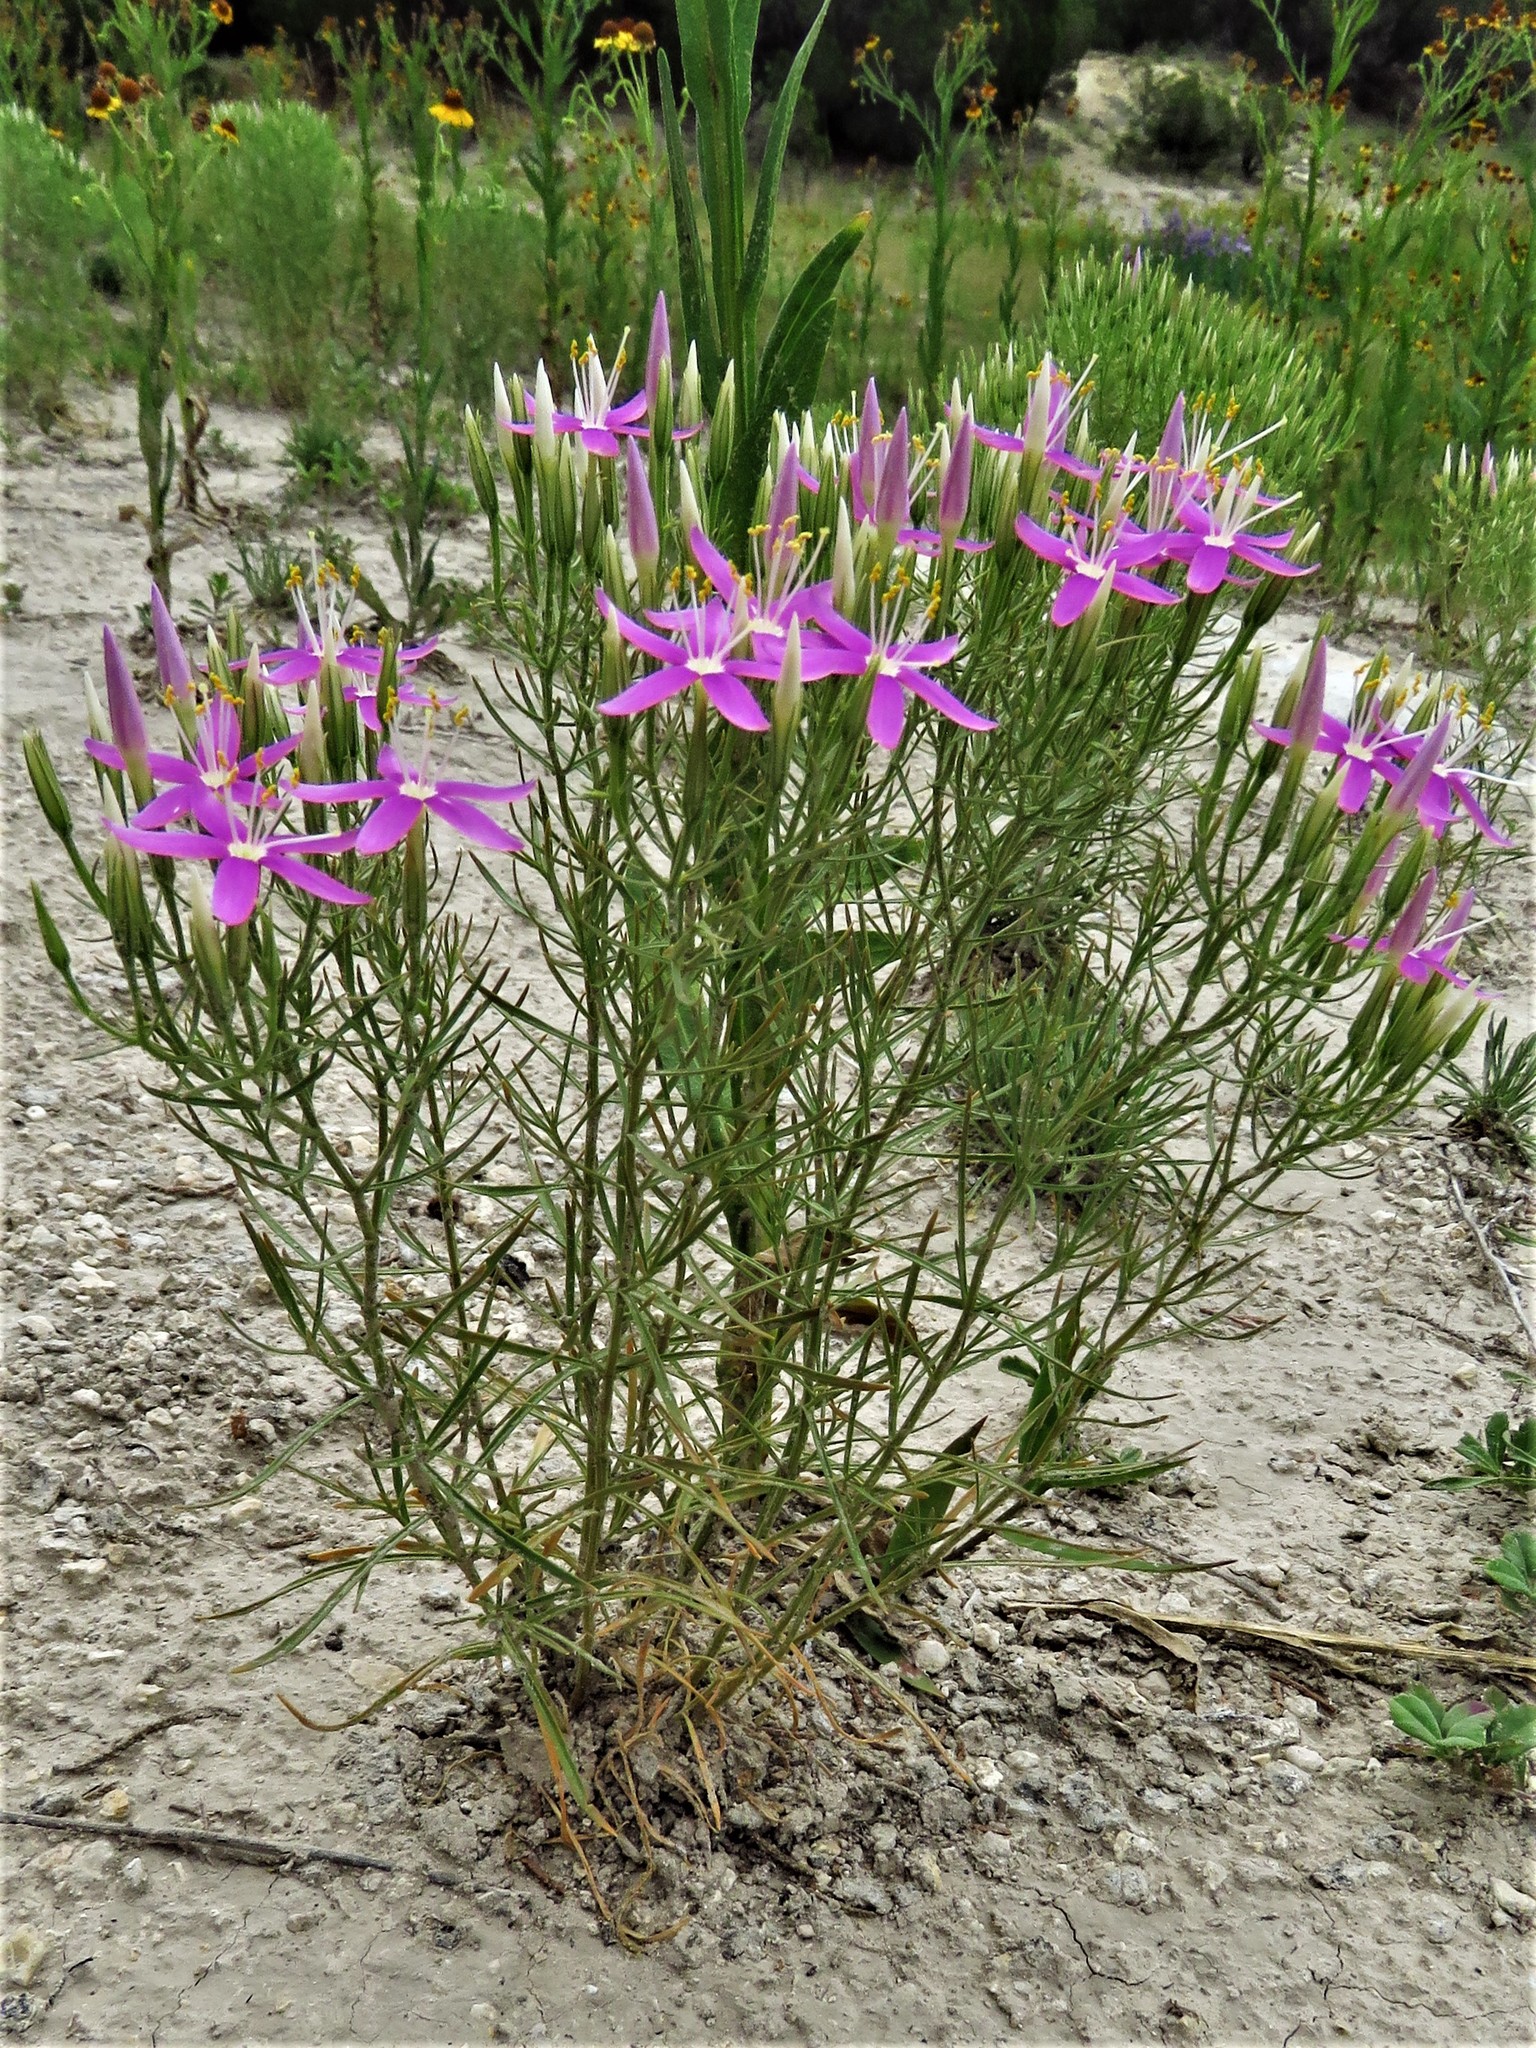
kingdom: Plantae
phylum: Tracheophyta
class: Magnoliopsida
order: Gentianales
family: Gentianaceae
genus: Zeltnera
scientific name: Zeltnera beyrichii
